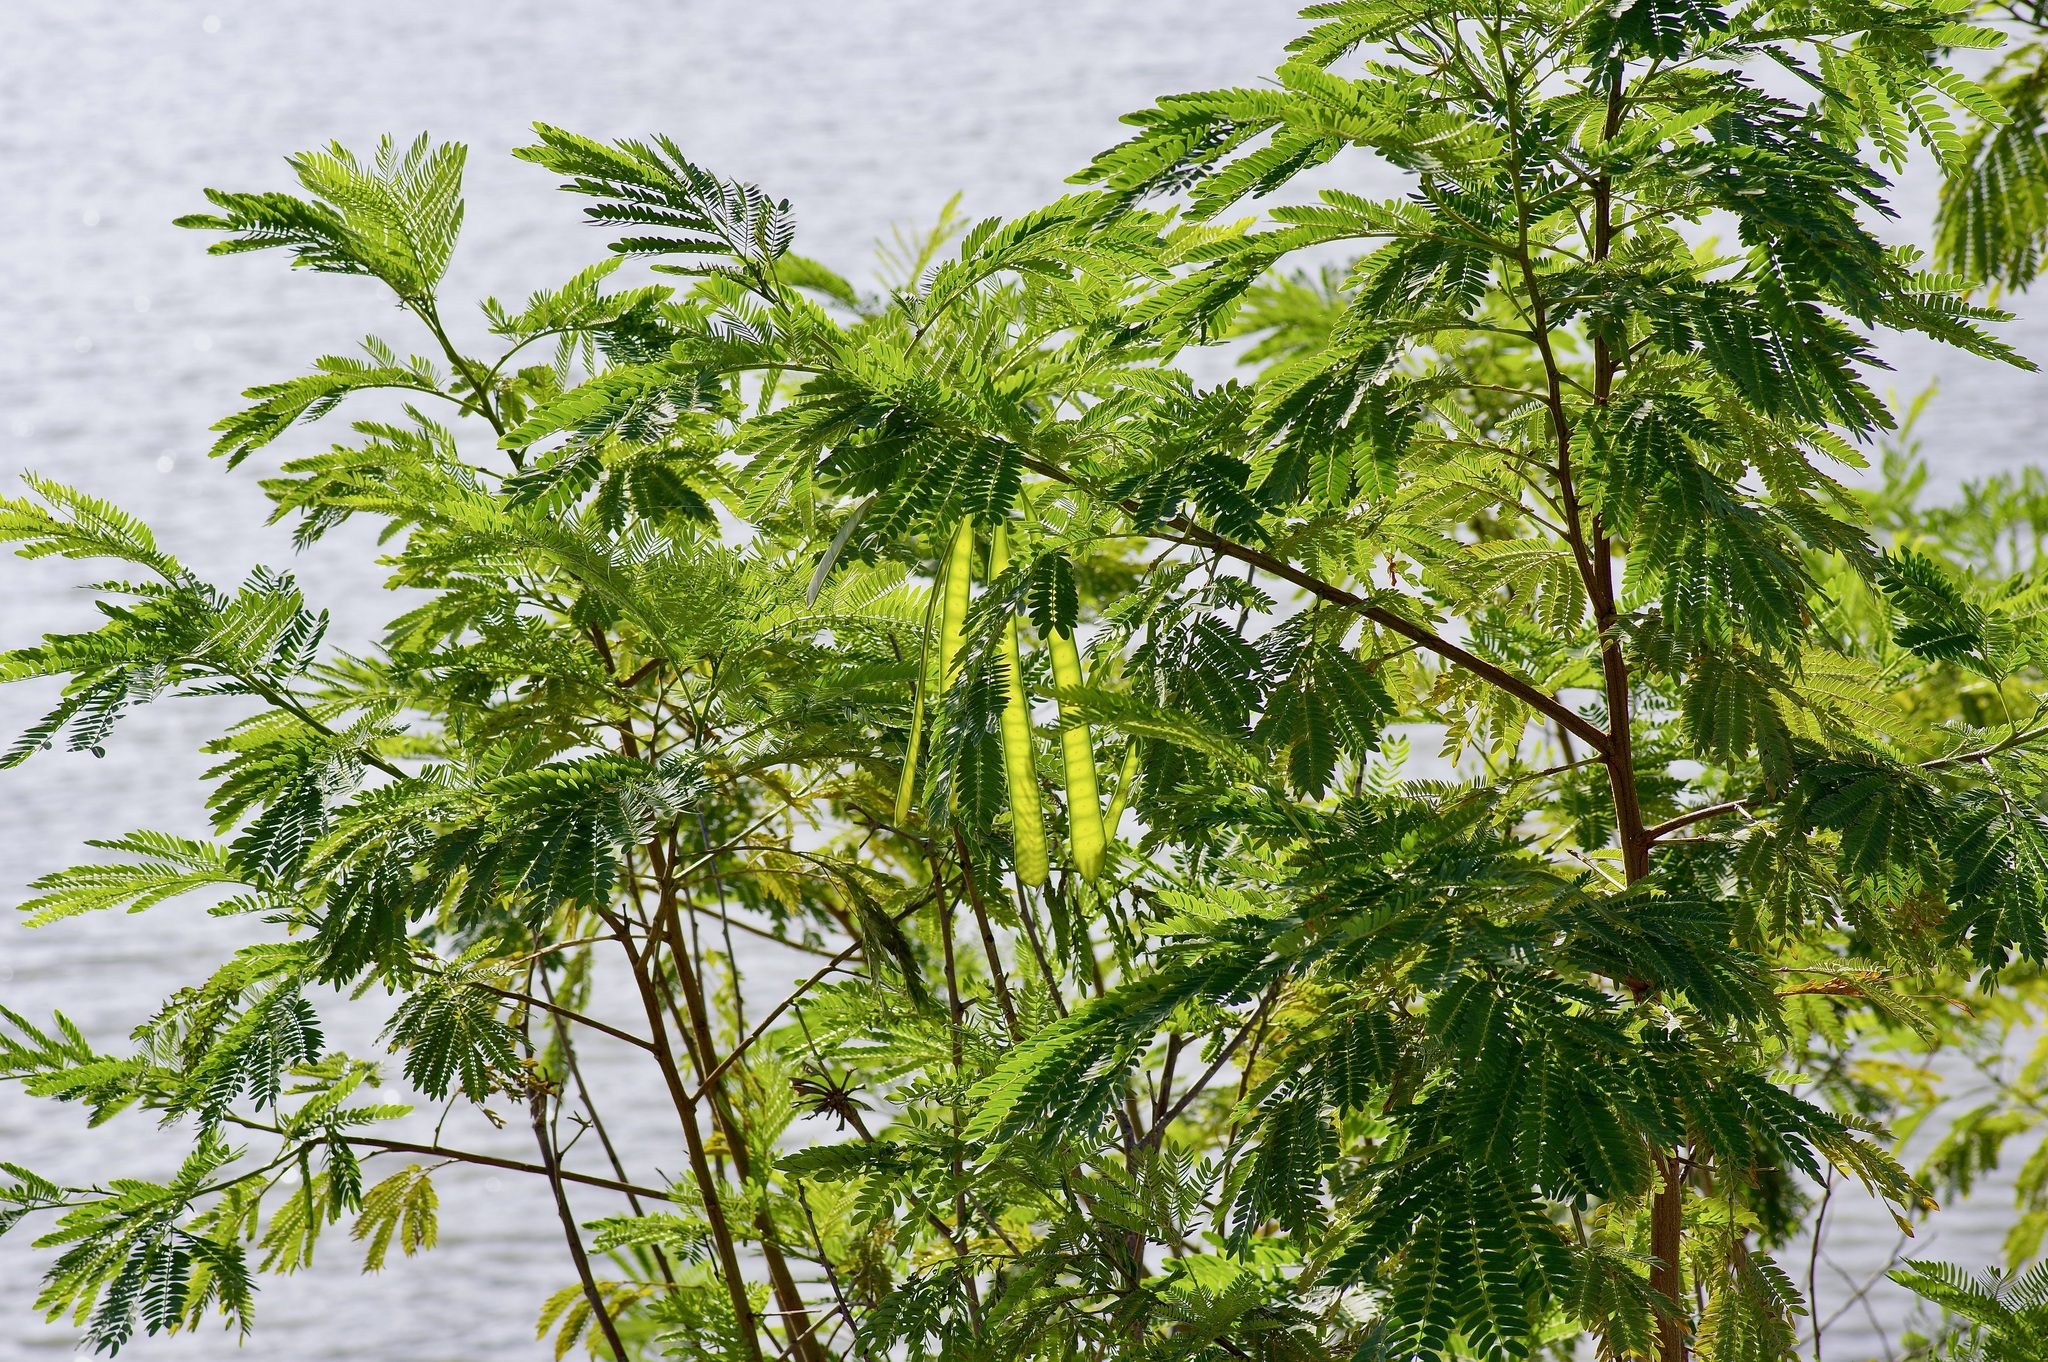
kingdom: Plantae
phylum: Tracheophyta
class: Magnoliopsida
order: Fabales
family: Fabaceae
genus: Leucaena
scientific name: Leucaena leucocephala
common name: White leadtree
